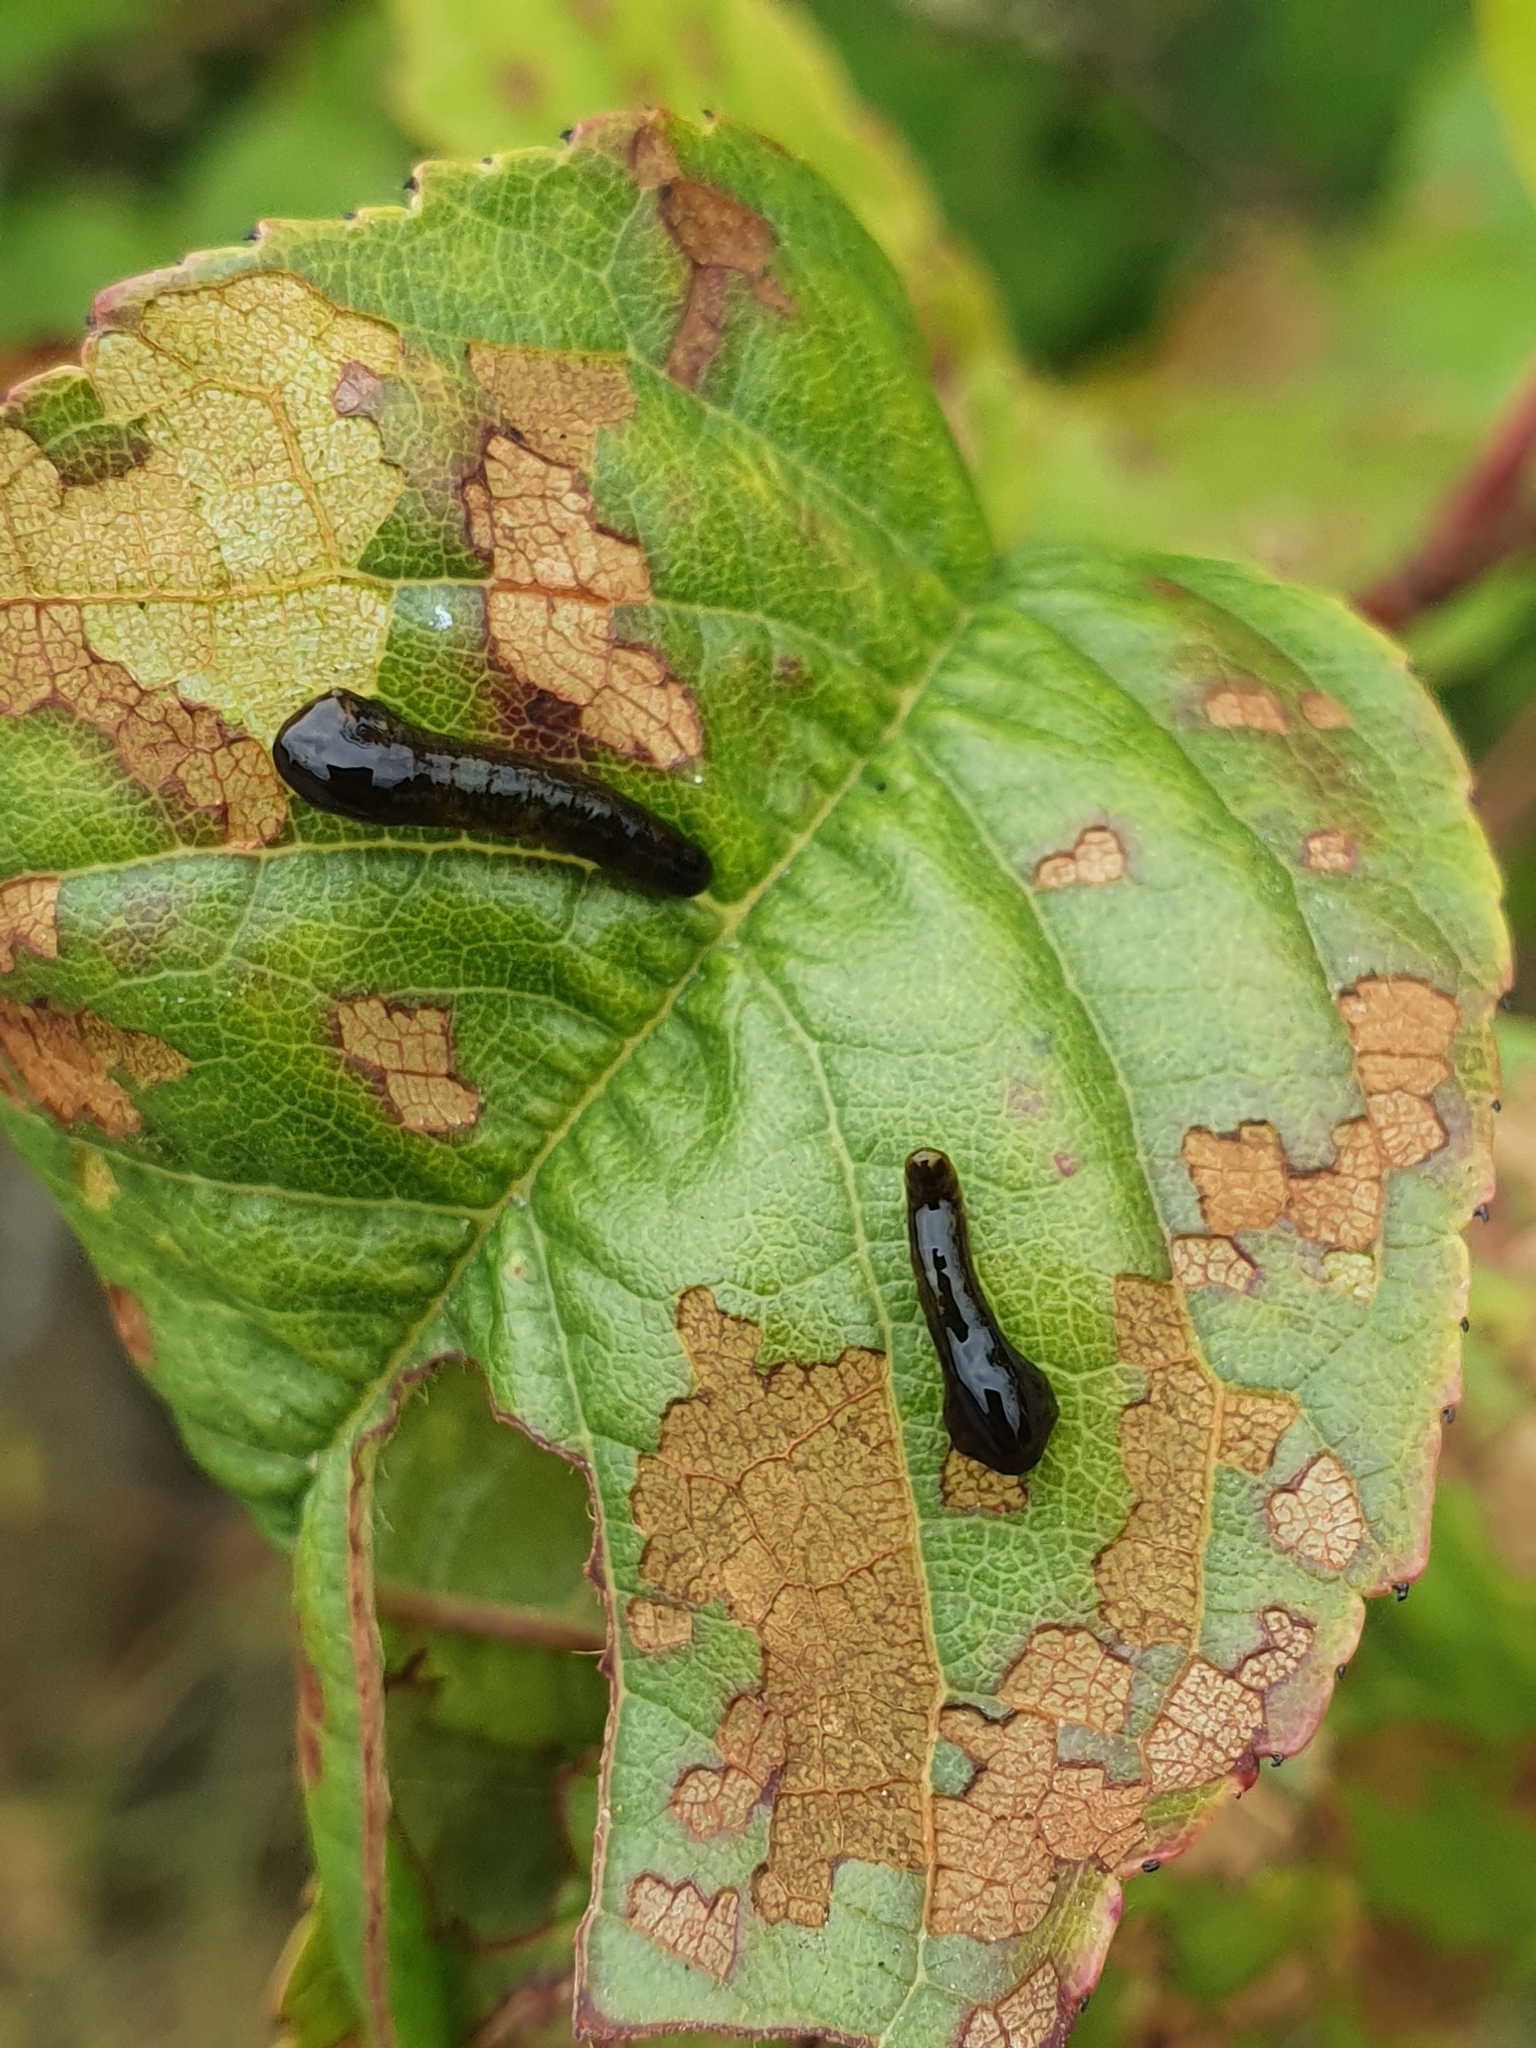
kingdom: Animalia
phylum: Arthropoda
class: Insecta
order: Hymenoptera
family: Tenthredinidae
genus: Caliroa
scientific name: Caliroa cerasi
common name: Pear sawfly
